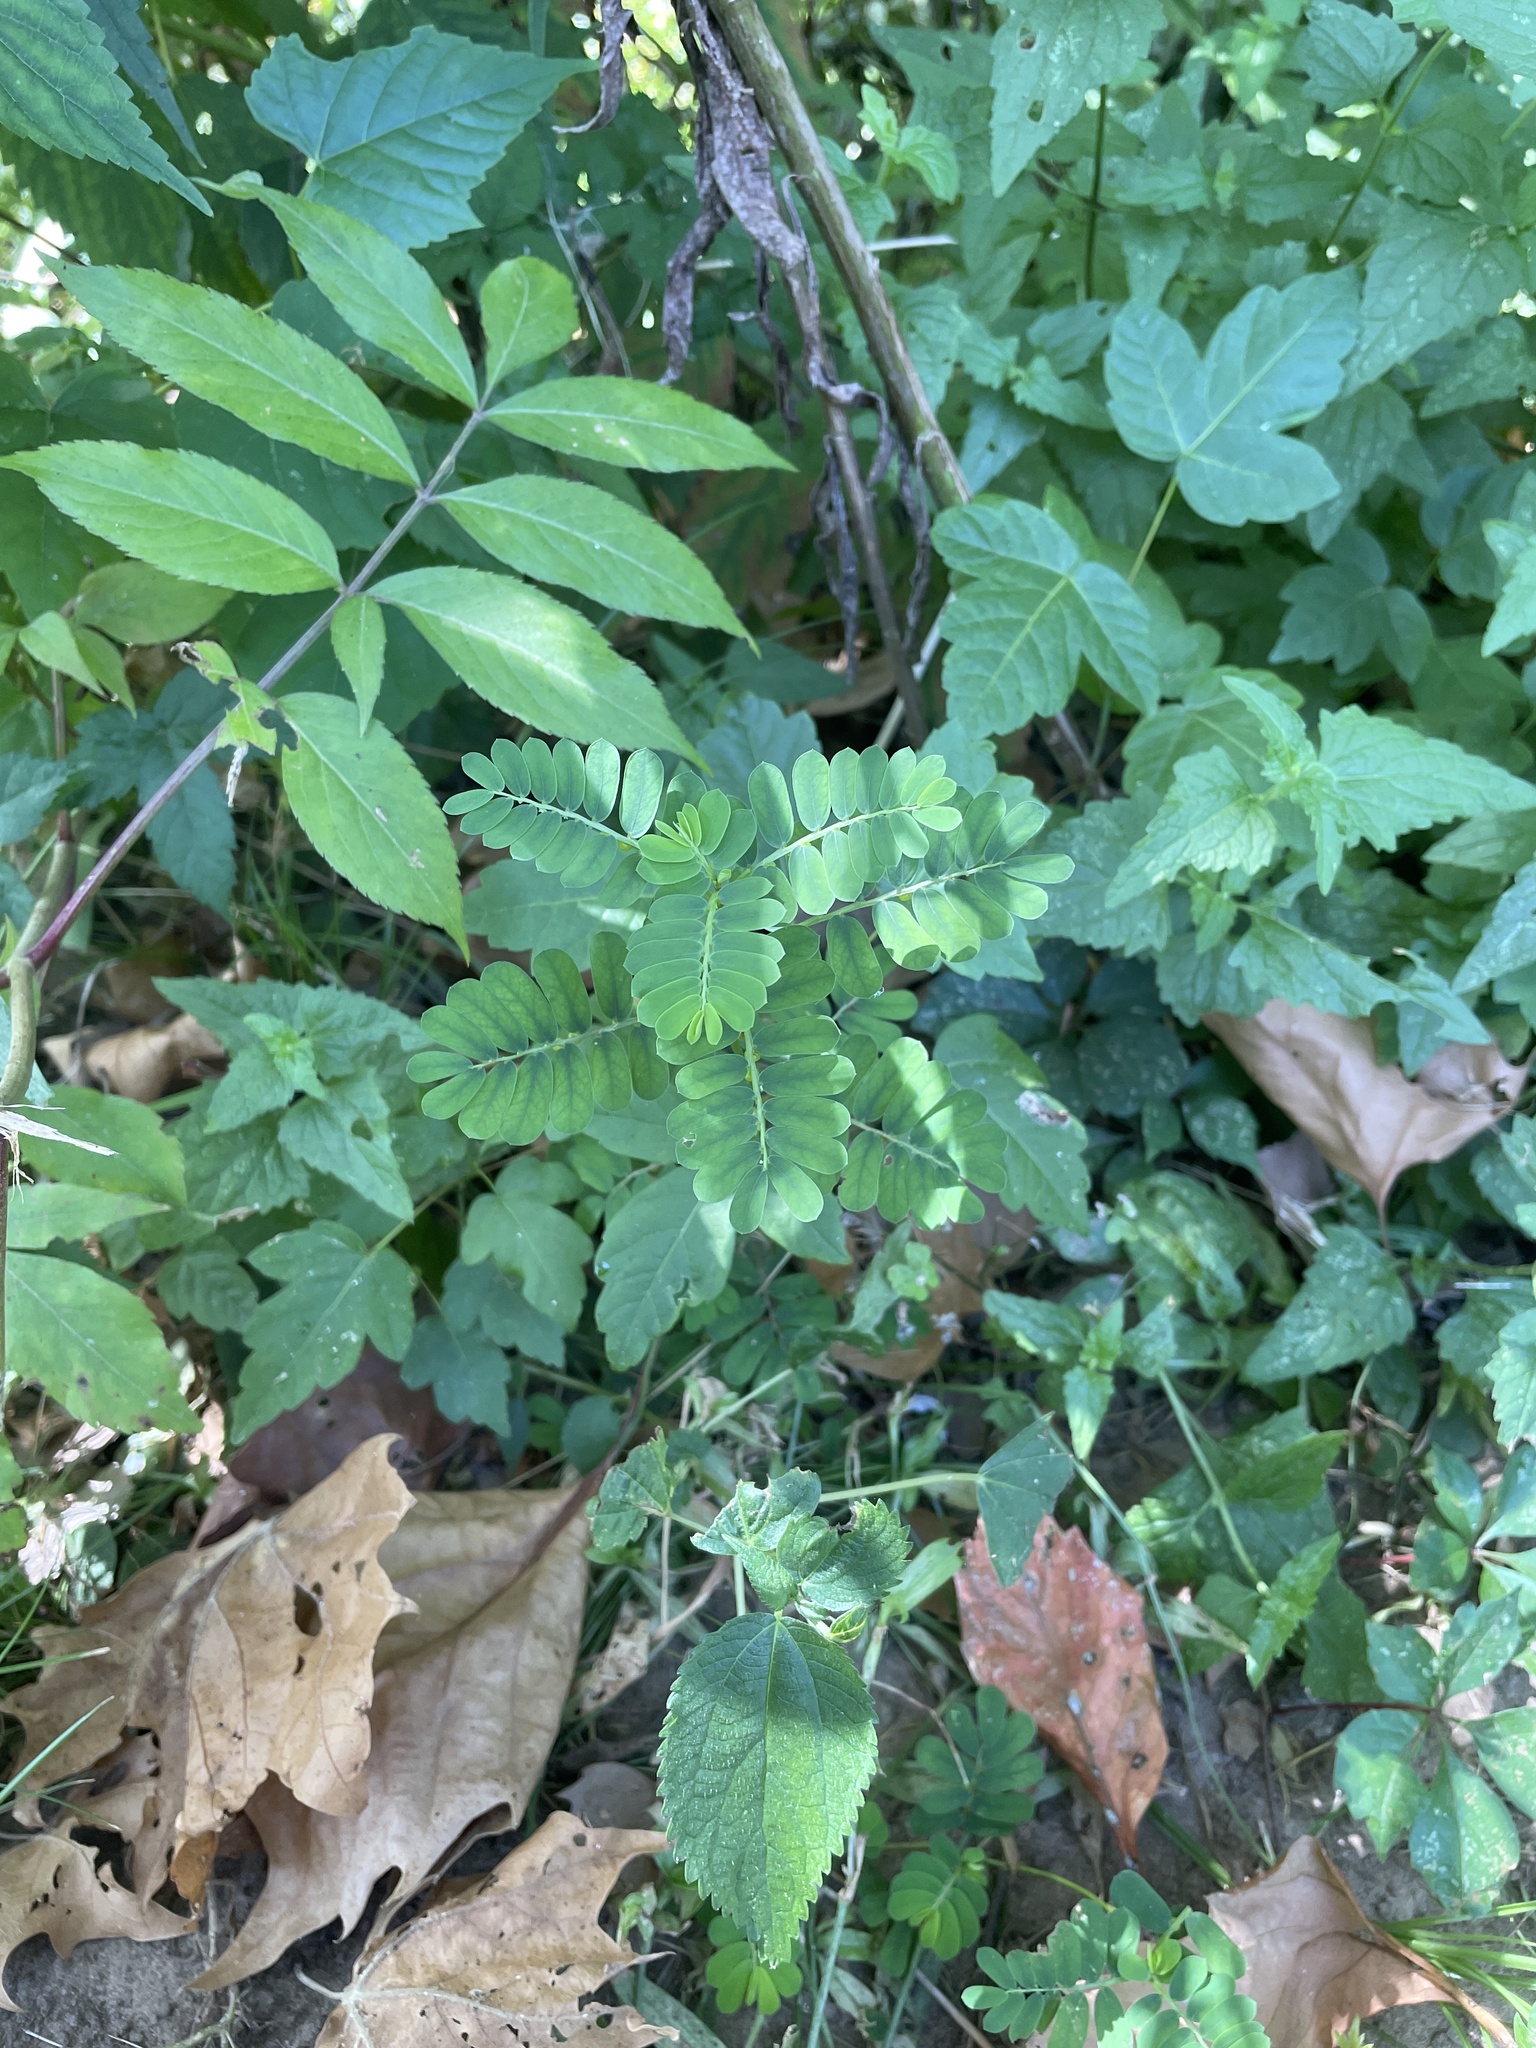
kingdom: Plantae
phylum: Tracheophyta
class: Magnoliopsida
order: Malpighiales
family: Phyllanthaceae
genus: Phyllanthus
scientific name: Phyllanthus urinaria
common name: Chamber bitter
